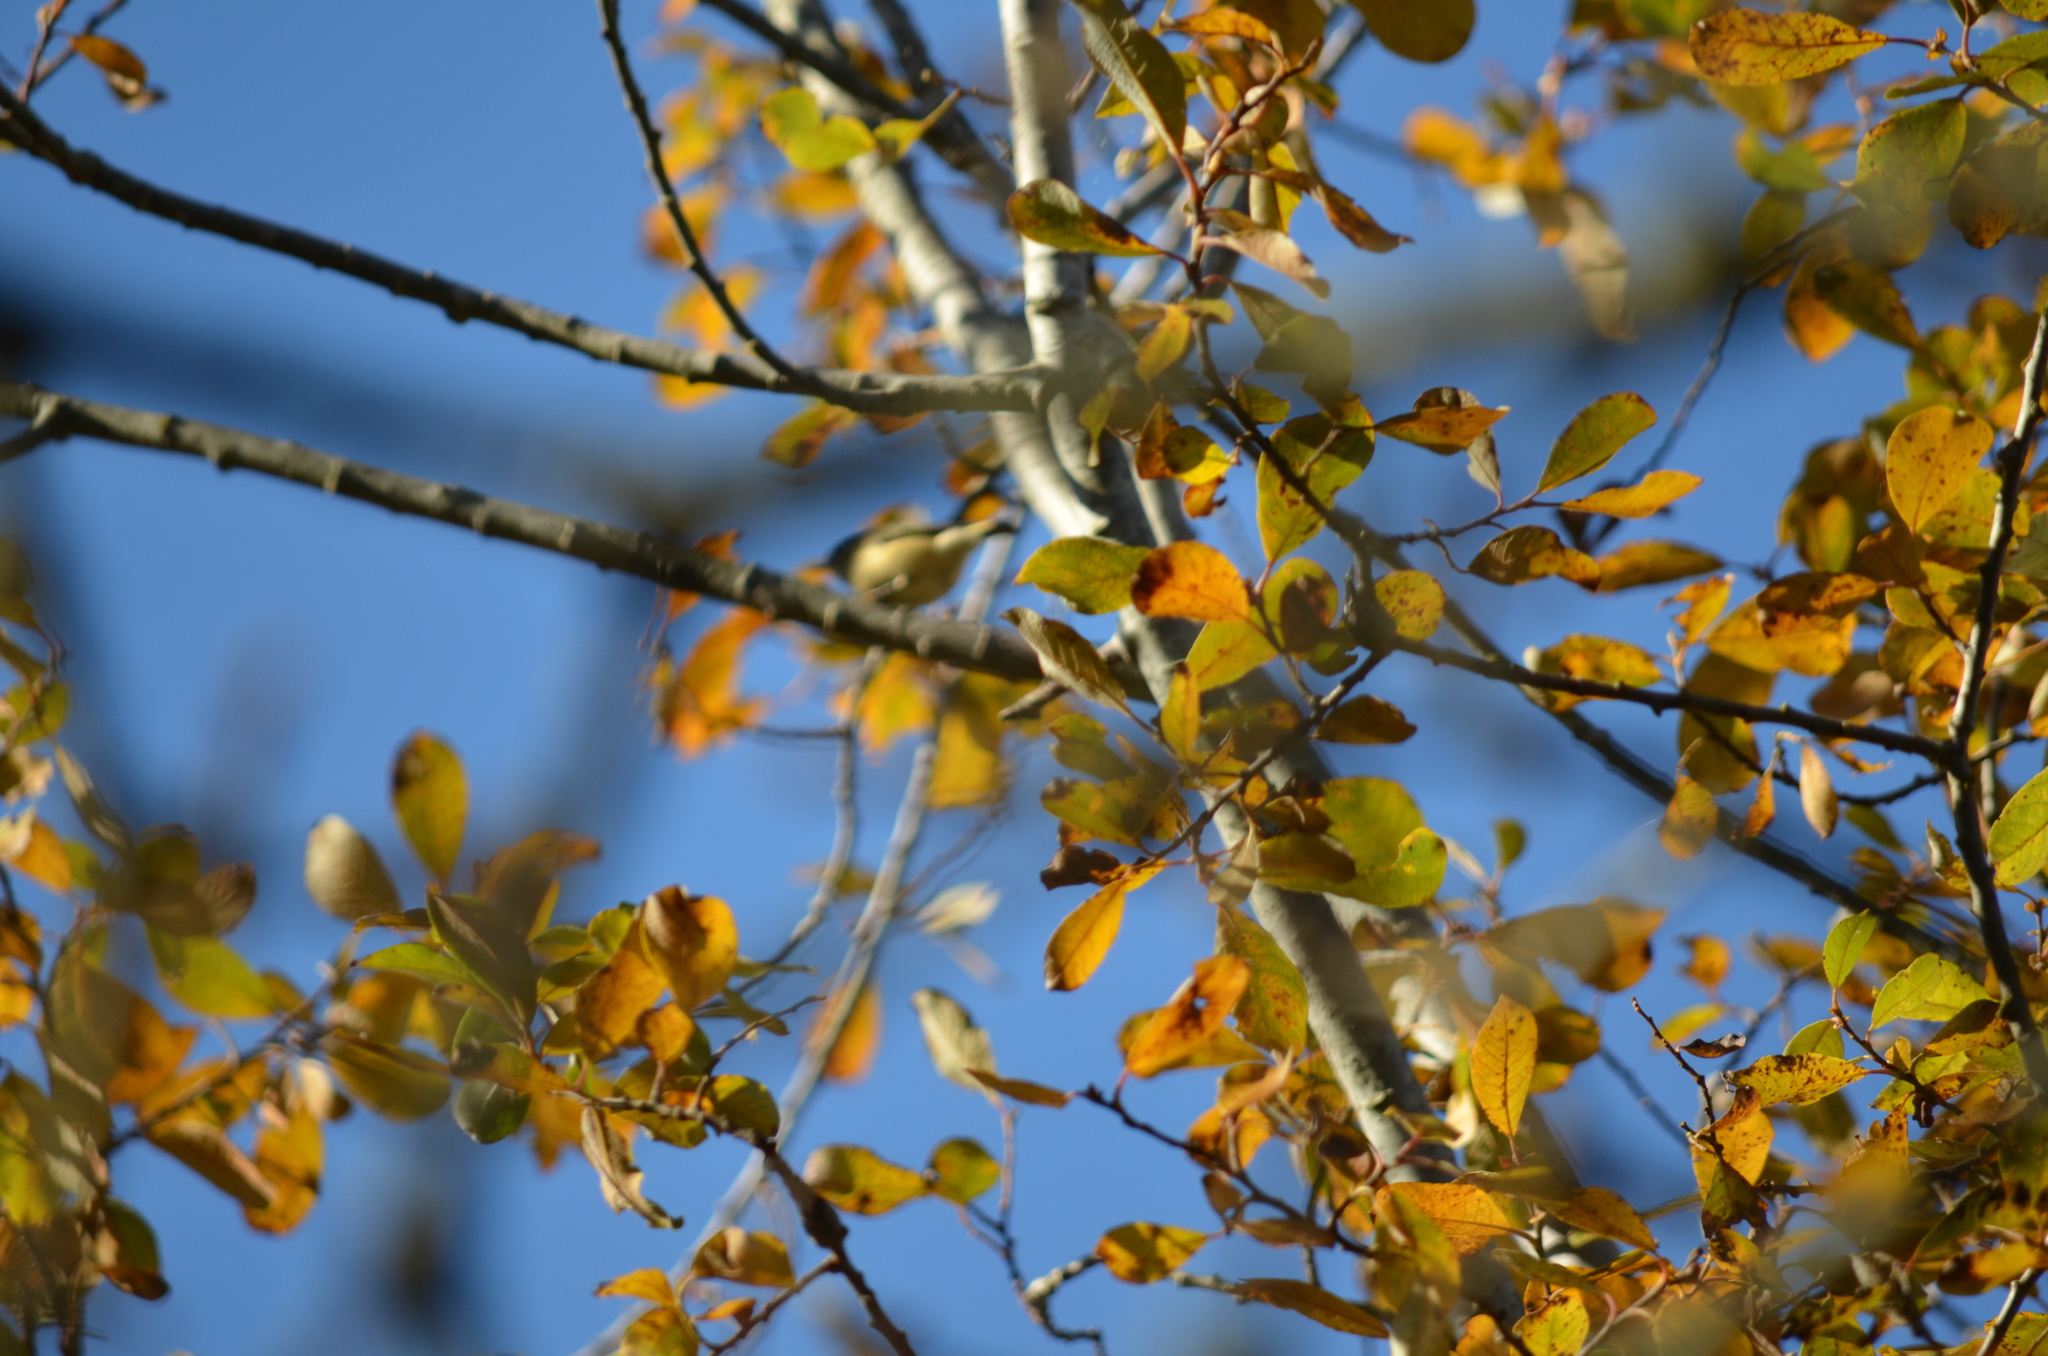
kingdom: Animalia
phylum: Chordata
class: Aves
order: Passeriformes
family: Regulidae
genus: Regulus
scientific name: Regulus calendula
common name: Ruby-crowned kinglet
